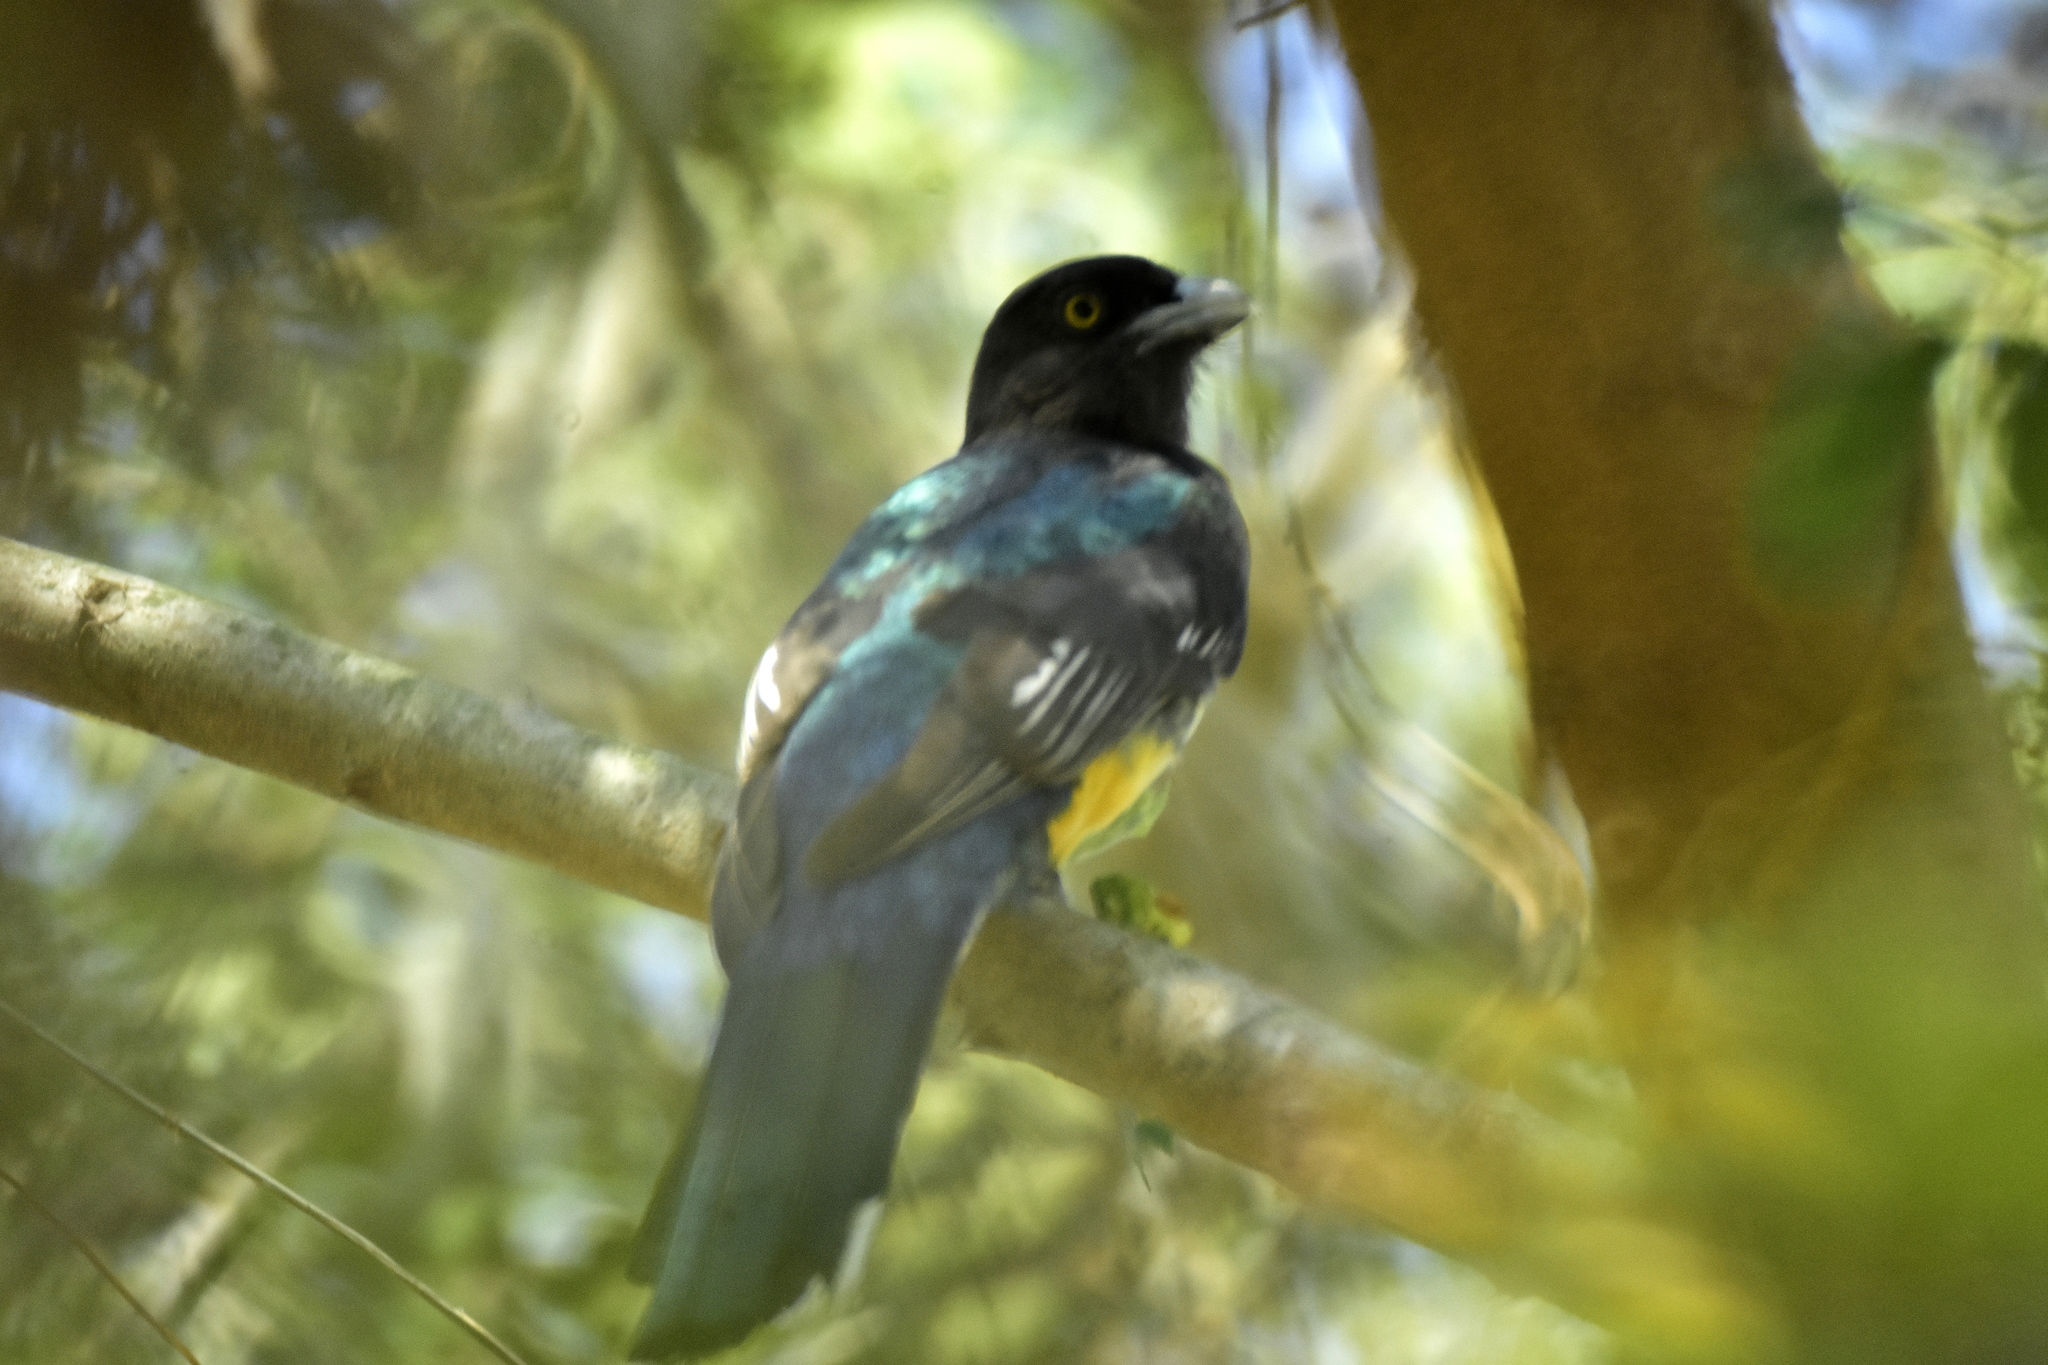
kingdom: Animalia
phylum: Chordata
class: Aves
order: Trogoniformes
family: Trogonidae
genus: Trogon
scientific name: Trogon citreolus
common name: Citreoline trogon
